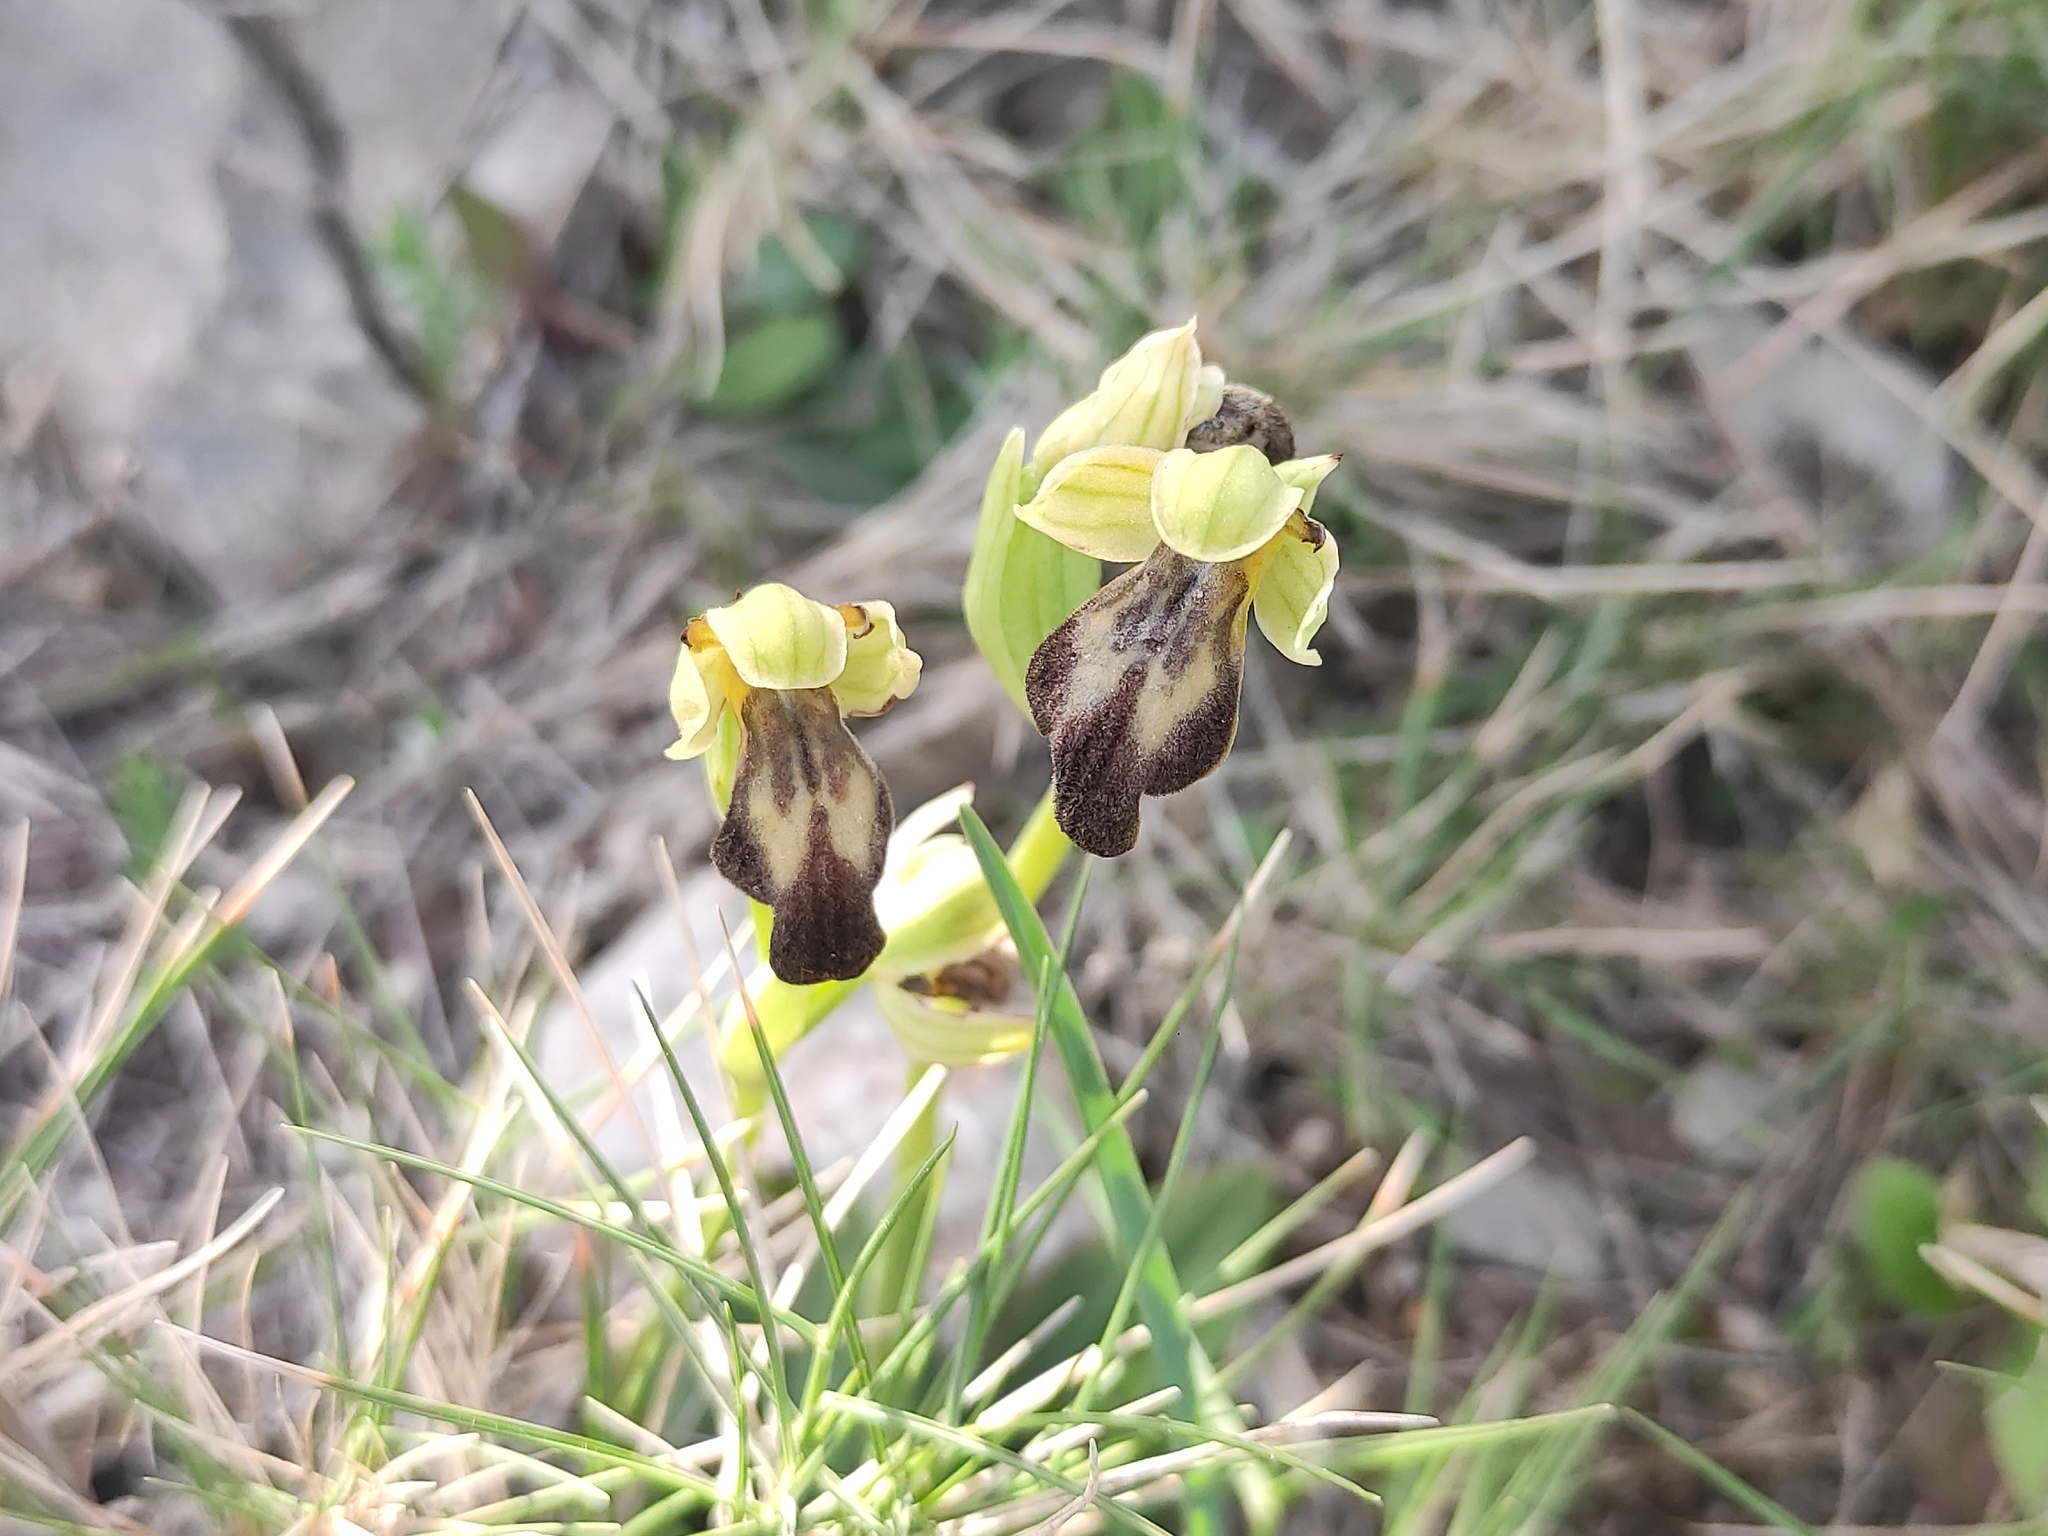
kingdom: Plantae
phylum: Tracheophyta
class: Liliopsida
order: Asparagales
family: Orchidaceae
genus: Ophrys
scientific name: Ophrys fusca
